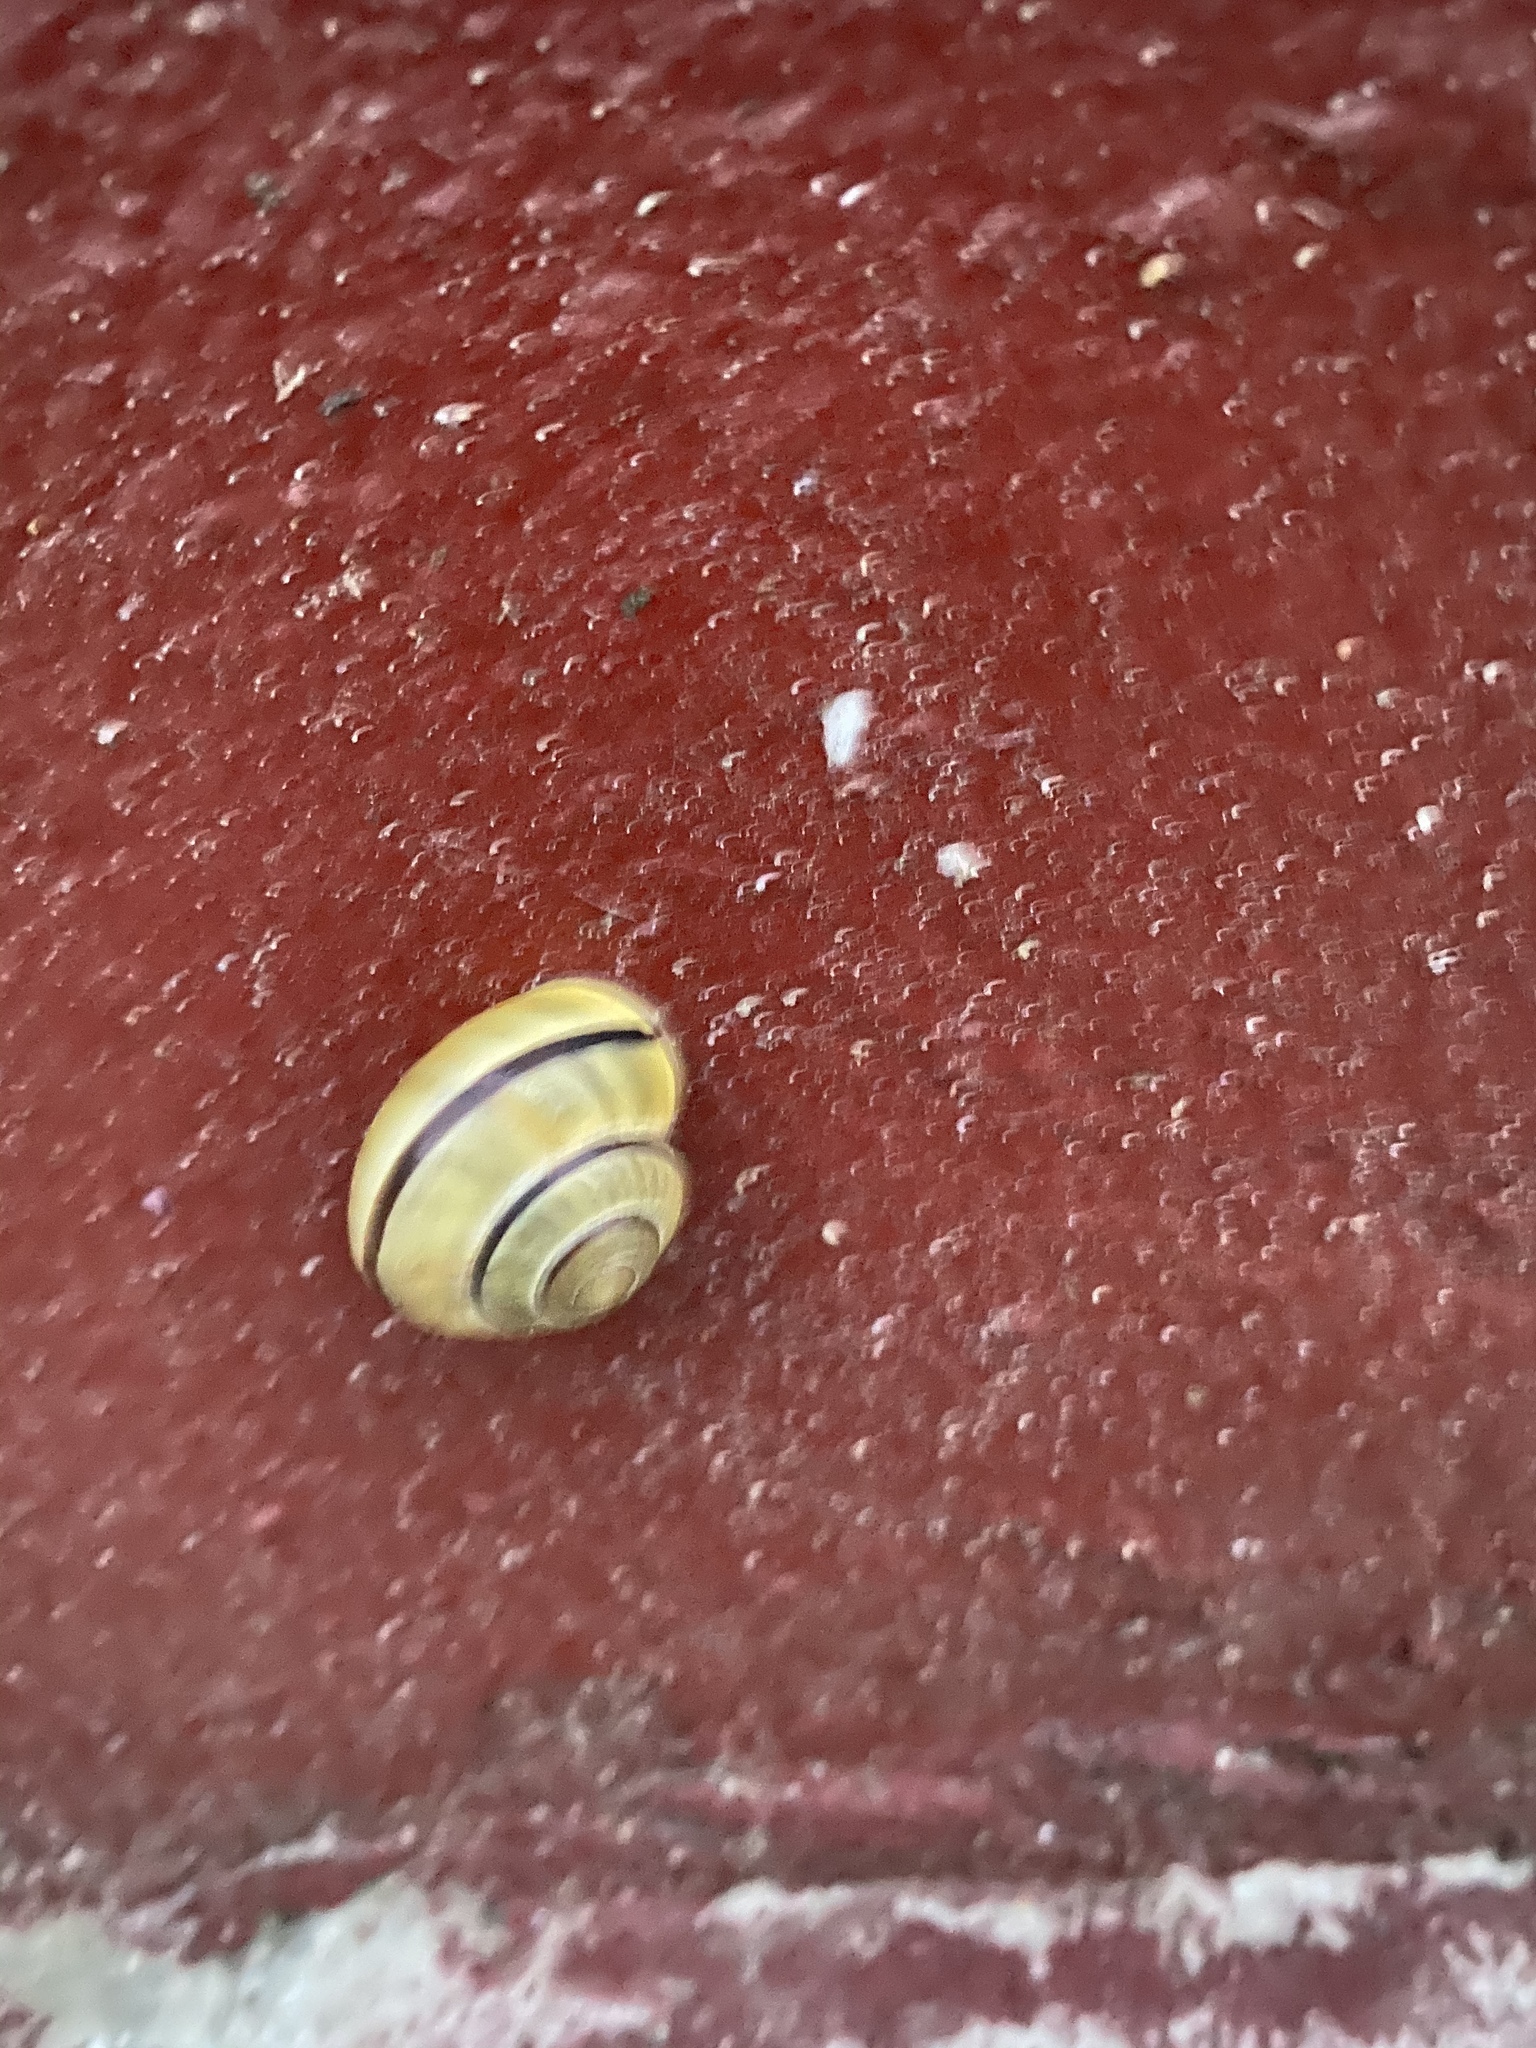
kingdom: Animalia
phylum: Mollusca
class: Gastropoda
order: Stylommatophora
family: Helicidae
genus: Cepaea
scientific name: Cepaea nemoralis
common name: Grovesnail
